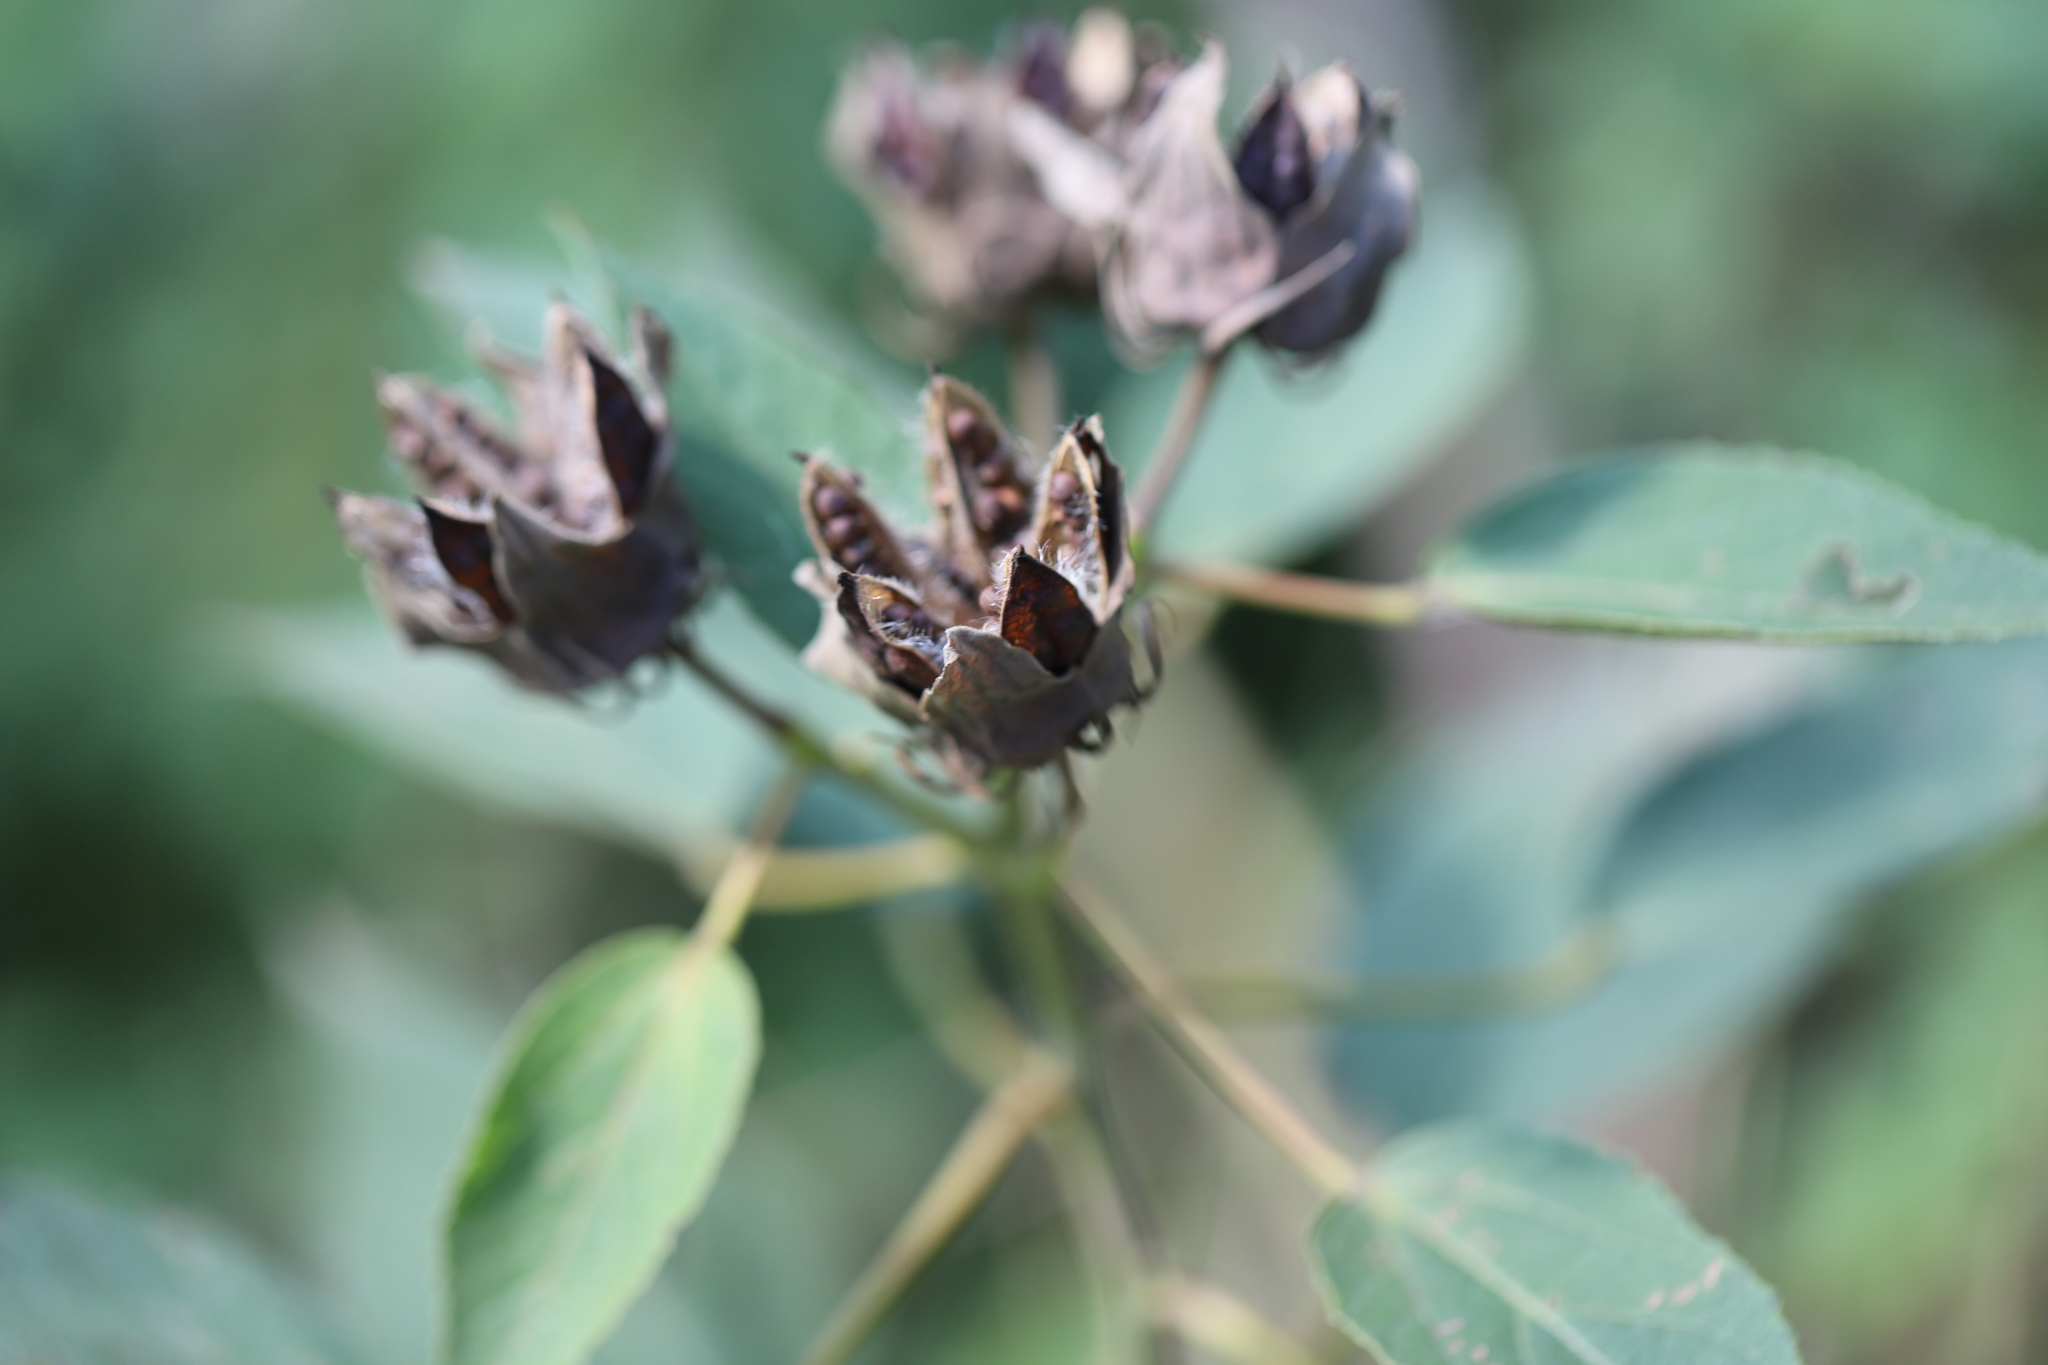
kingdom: Plantae
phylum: Tracheophyta
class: Magnoliopsida
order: Malvales
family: Malvaceae
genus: Hibiscus
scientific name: Hibiscus moscheutos
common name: Common rose-mallow
